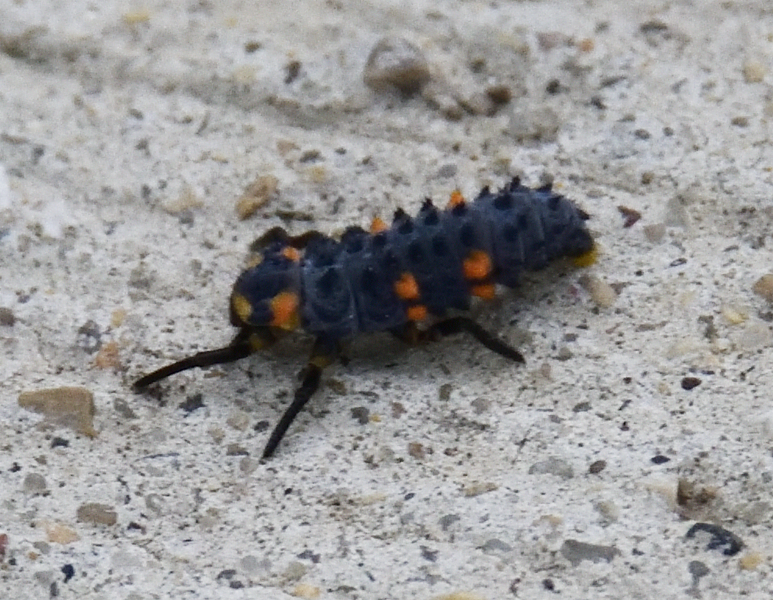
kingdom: Animalia
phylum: Arthropoda
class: Insecta
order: Coleoptera
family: Coccinellidae
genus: Coccinella
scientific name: Coccinella septempunctata
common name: Sevenspotted lady beetle
